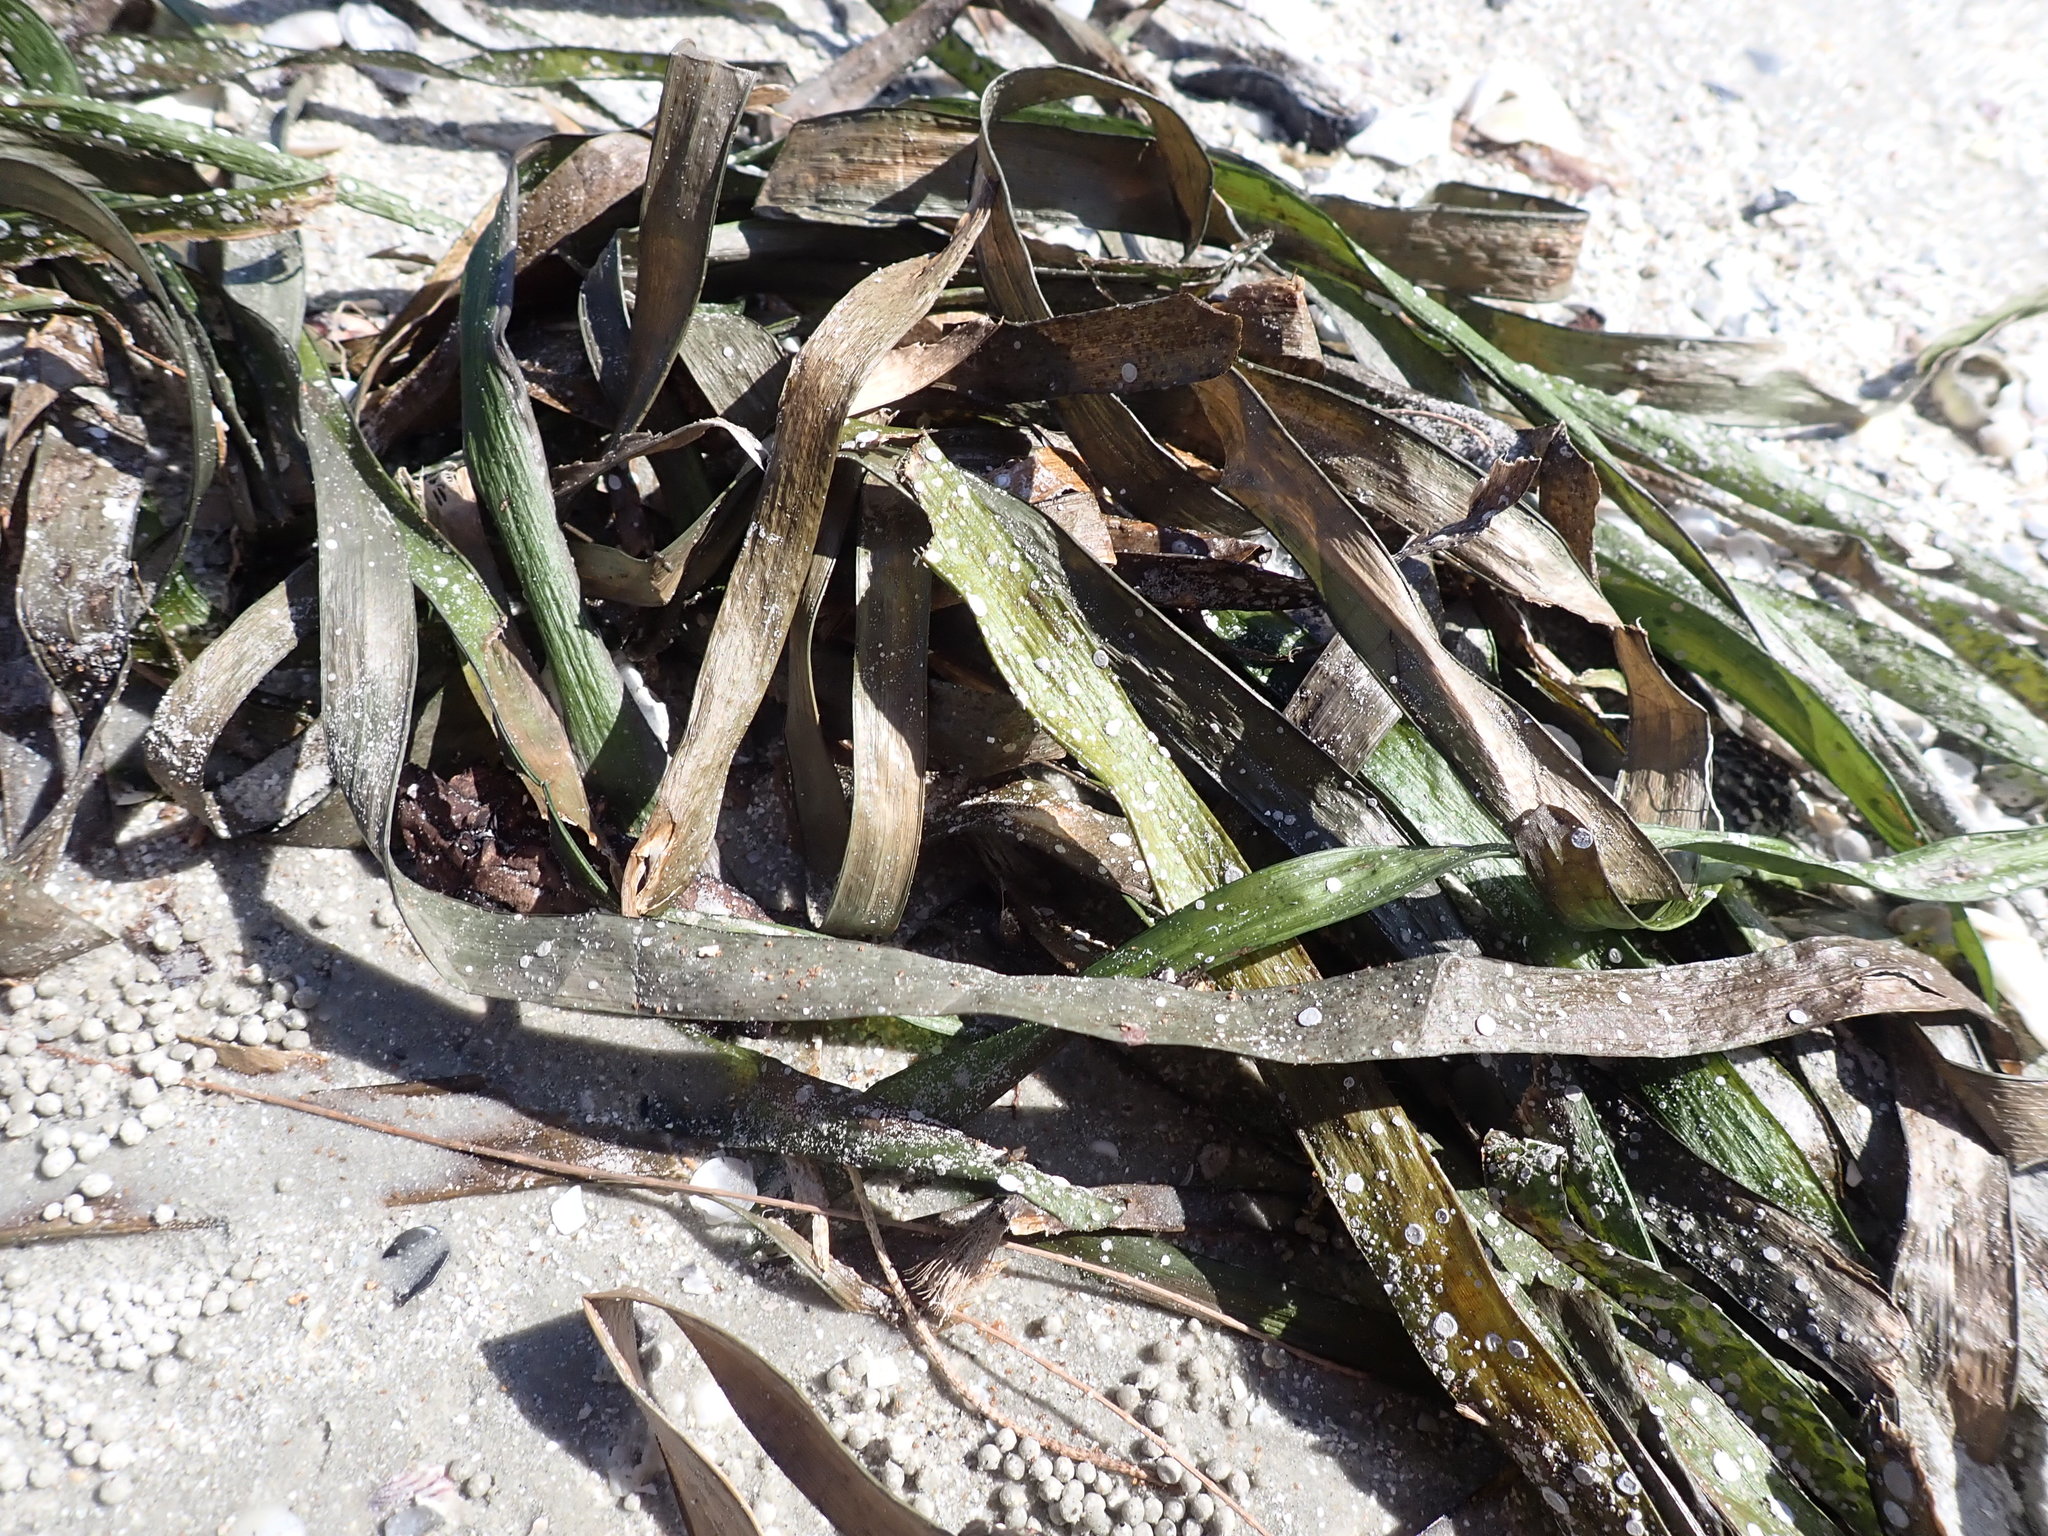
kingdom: Plantae
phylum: Tracheophyta
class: Liliopsida
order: Alismatales
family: Hydrocharitaceae
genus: Enhalus
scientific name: Enhalus acoroides
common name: Species code: ea
